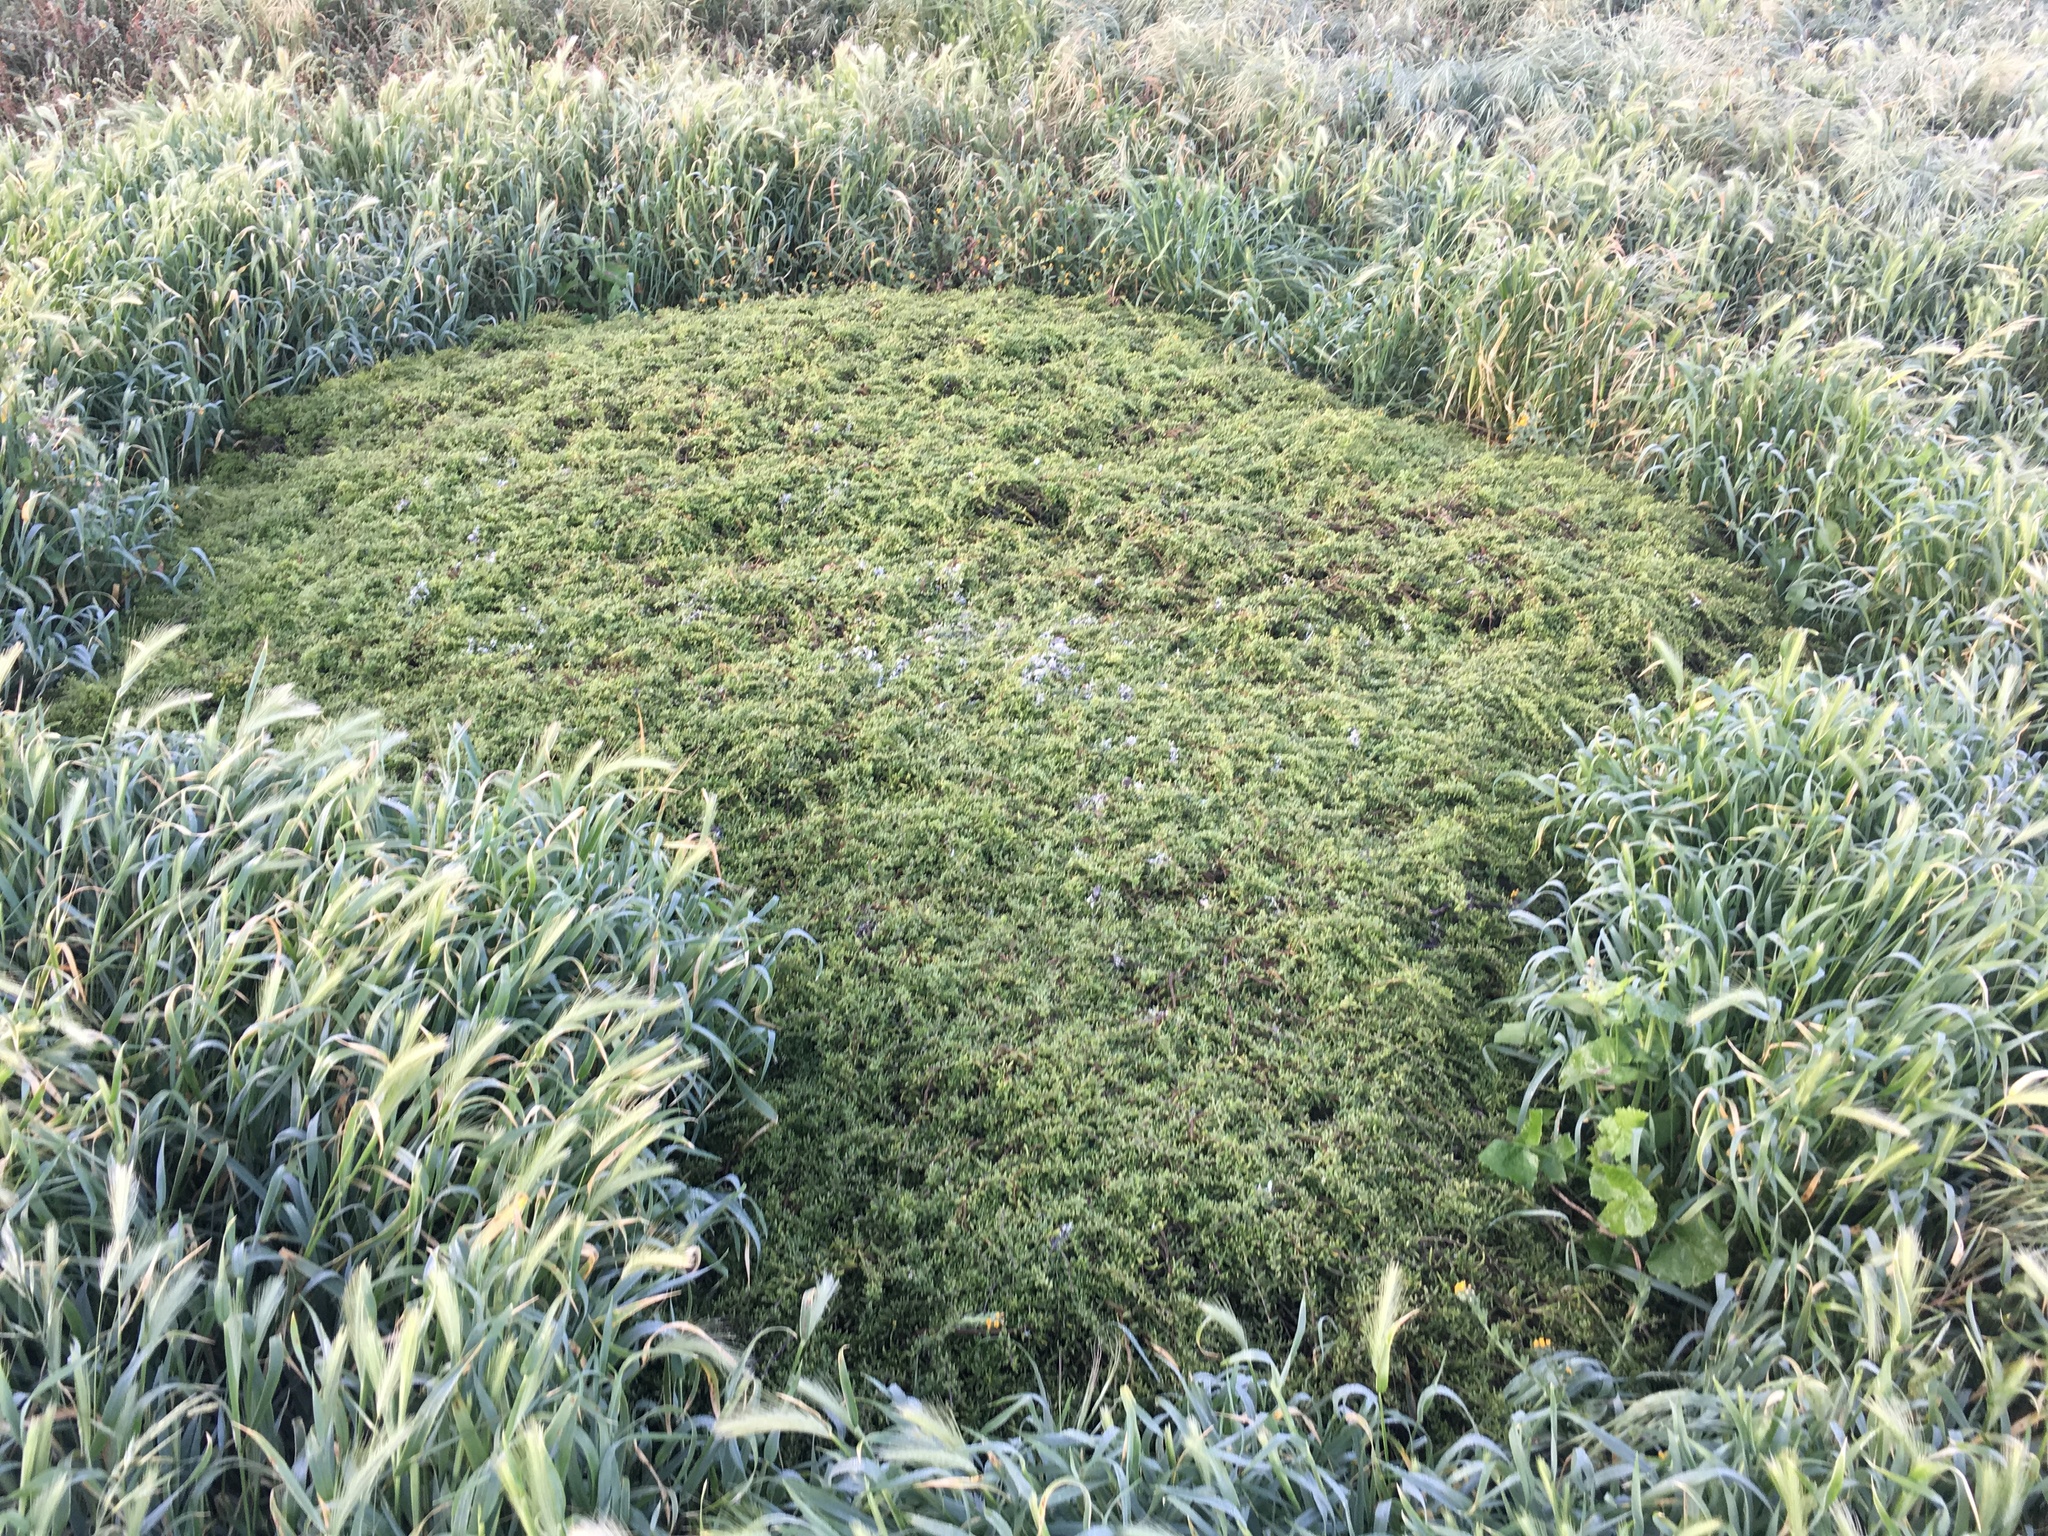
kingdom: Plantae
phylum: Tracheophyta
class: Magnoliopsida
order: Solanales
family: Solanaceae
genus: Lycium
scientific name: Lycium californicum
